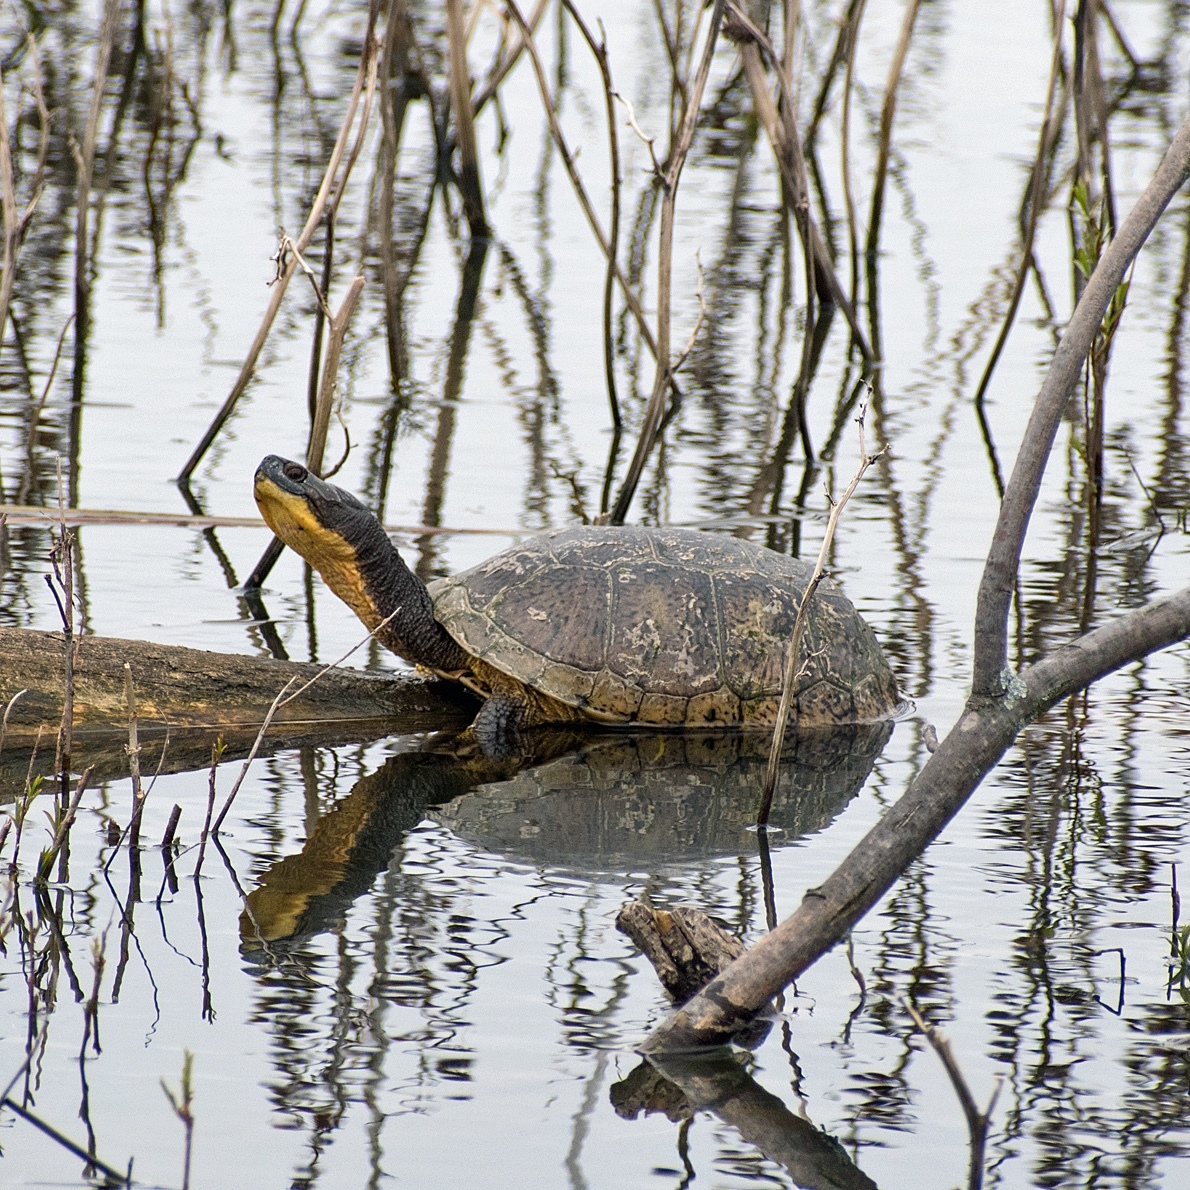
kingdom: Animalia
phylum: Chordata
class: Testudines
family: Emydidae
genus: Emys
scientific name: Emys blandingii
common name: Blanding's turtle
